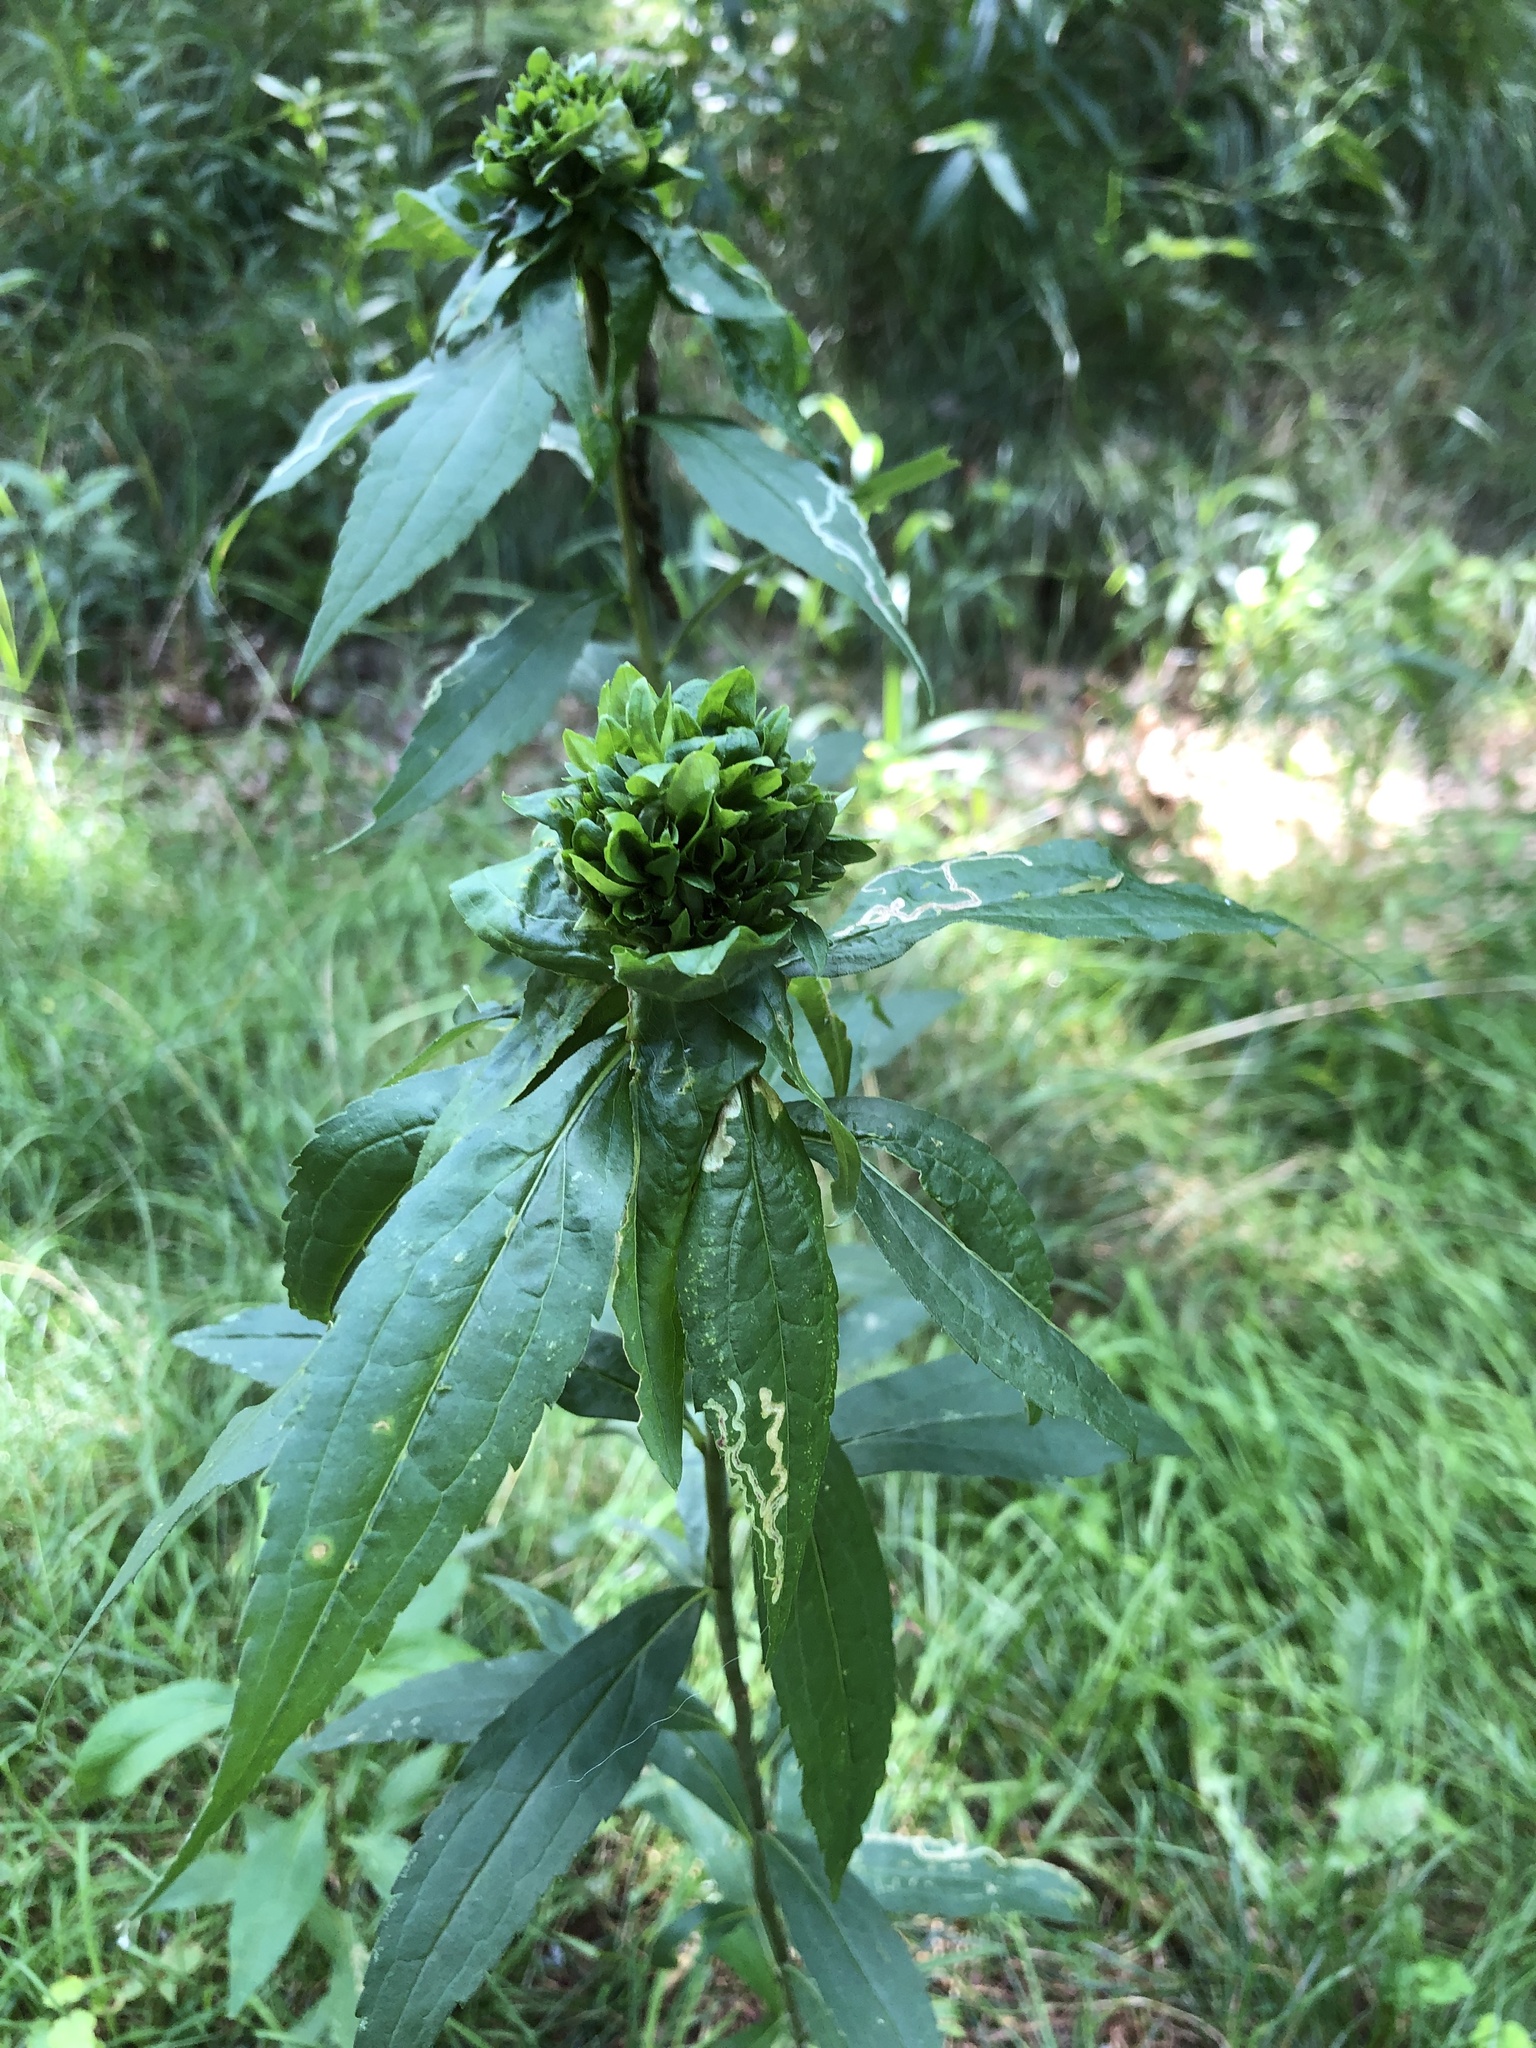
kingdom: Animalia
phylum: Arthropoda
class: Insecta
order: Diptera
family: Cecidomyiidae
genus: Rhopalomyia
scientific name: Rhopalomyia capitata
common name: Giant goldenrod bunch gall midge
